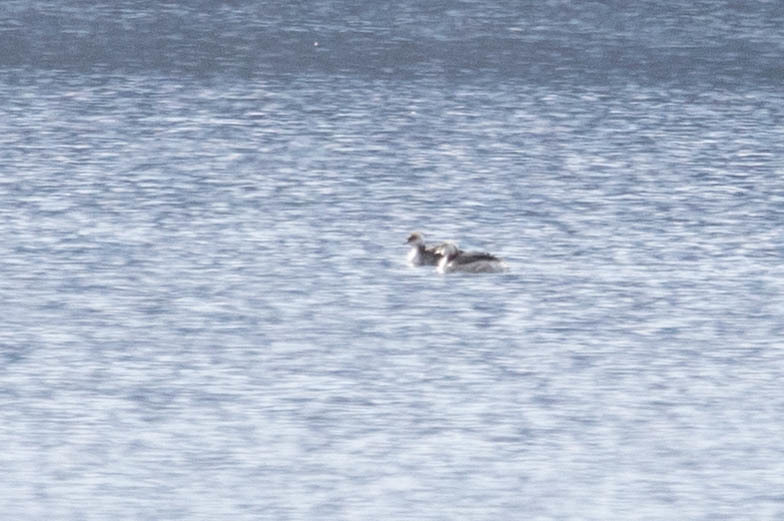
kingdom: Animalia
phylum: Chordata
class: Aves
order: Podicipediformes
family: Podicipedidae
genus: Podiceps
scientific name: Podiceps auritus
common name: Horned grebe
